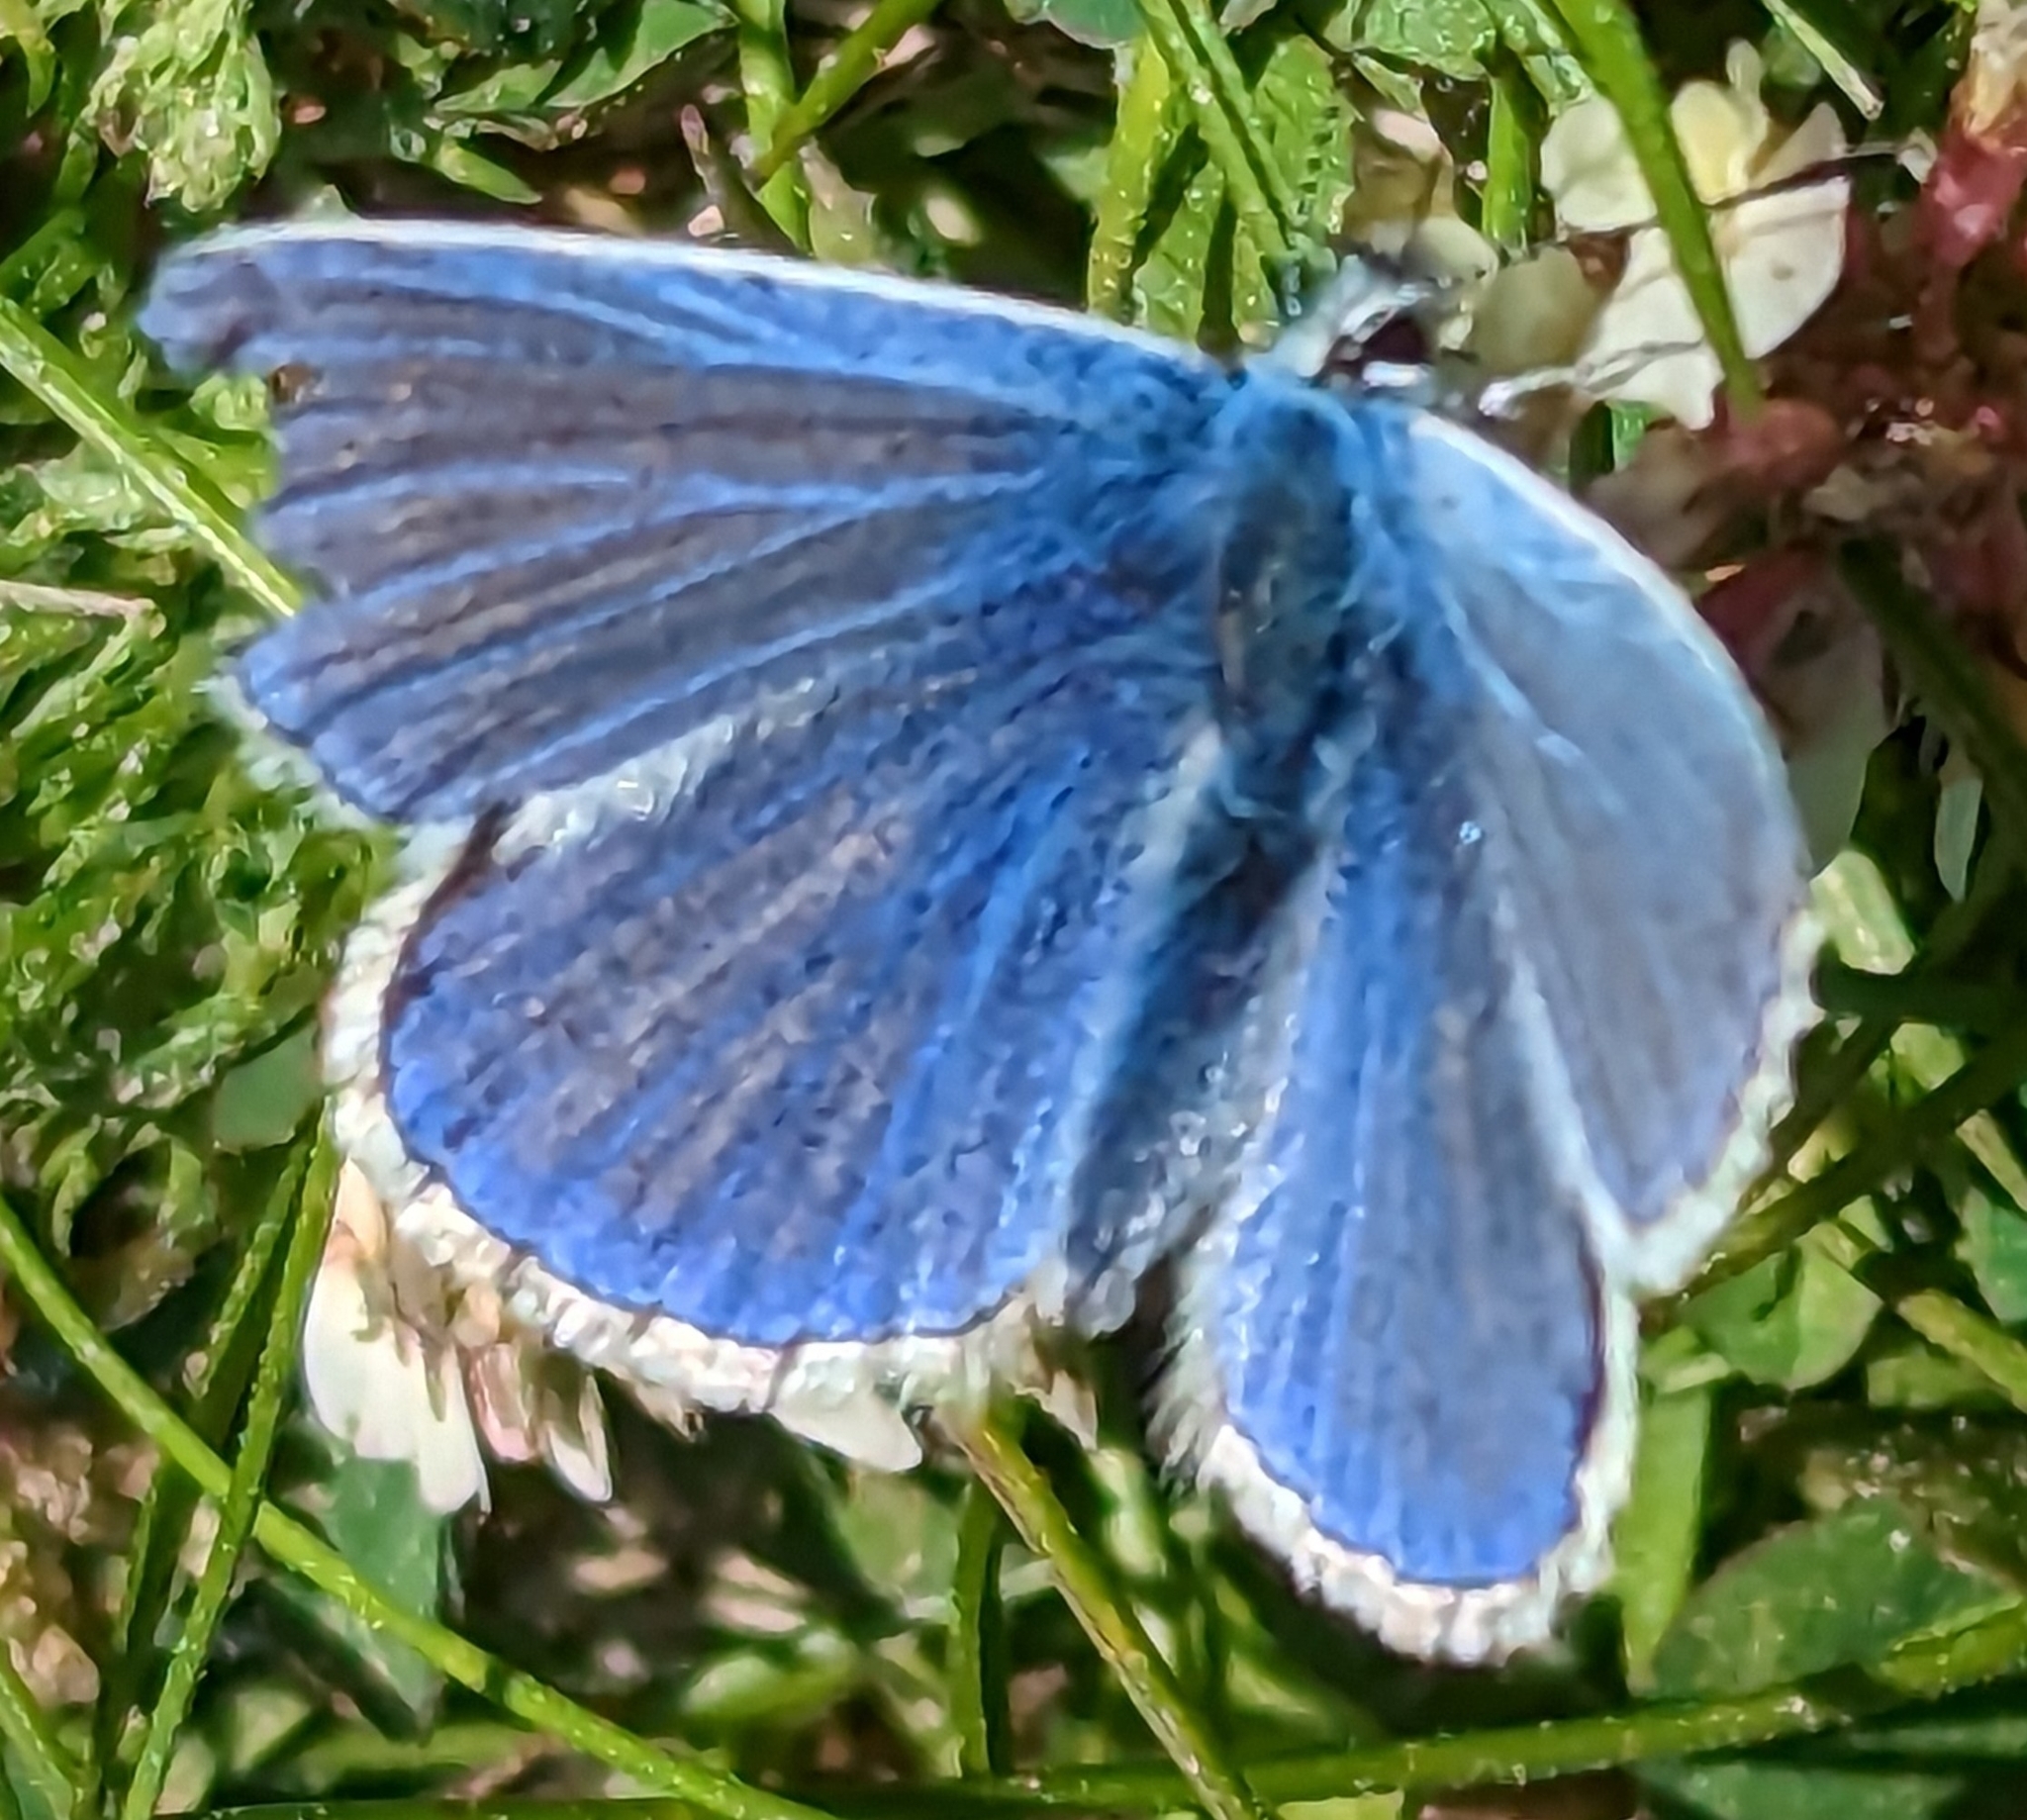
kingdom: Animalia
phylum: Arthropoda
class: Insecta
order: Lepidoptera
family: Lycaenidae
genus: Polyommatus
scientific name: Polyommatus icarus
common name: Common blue
